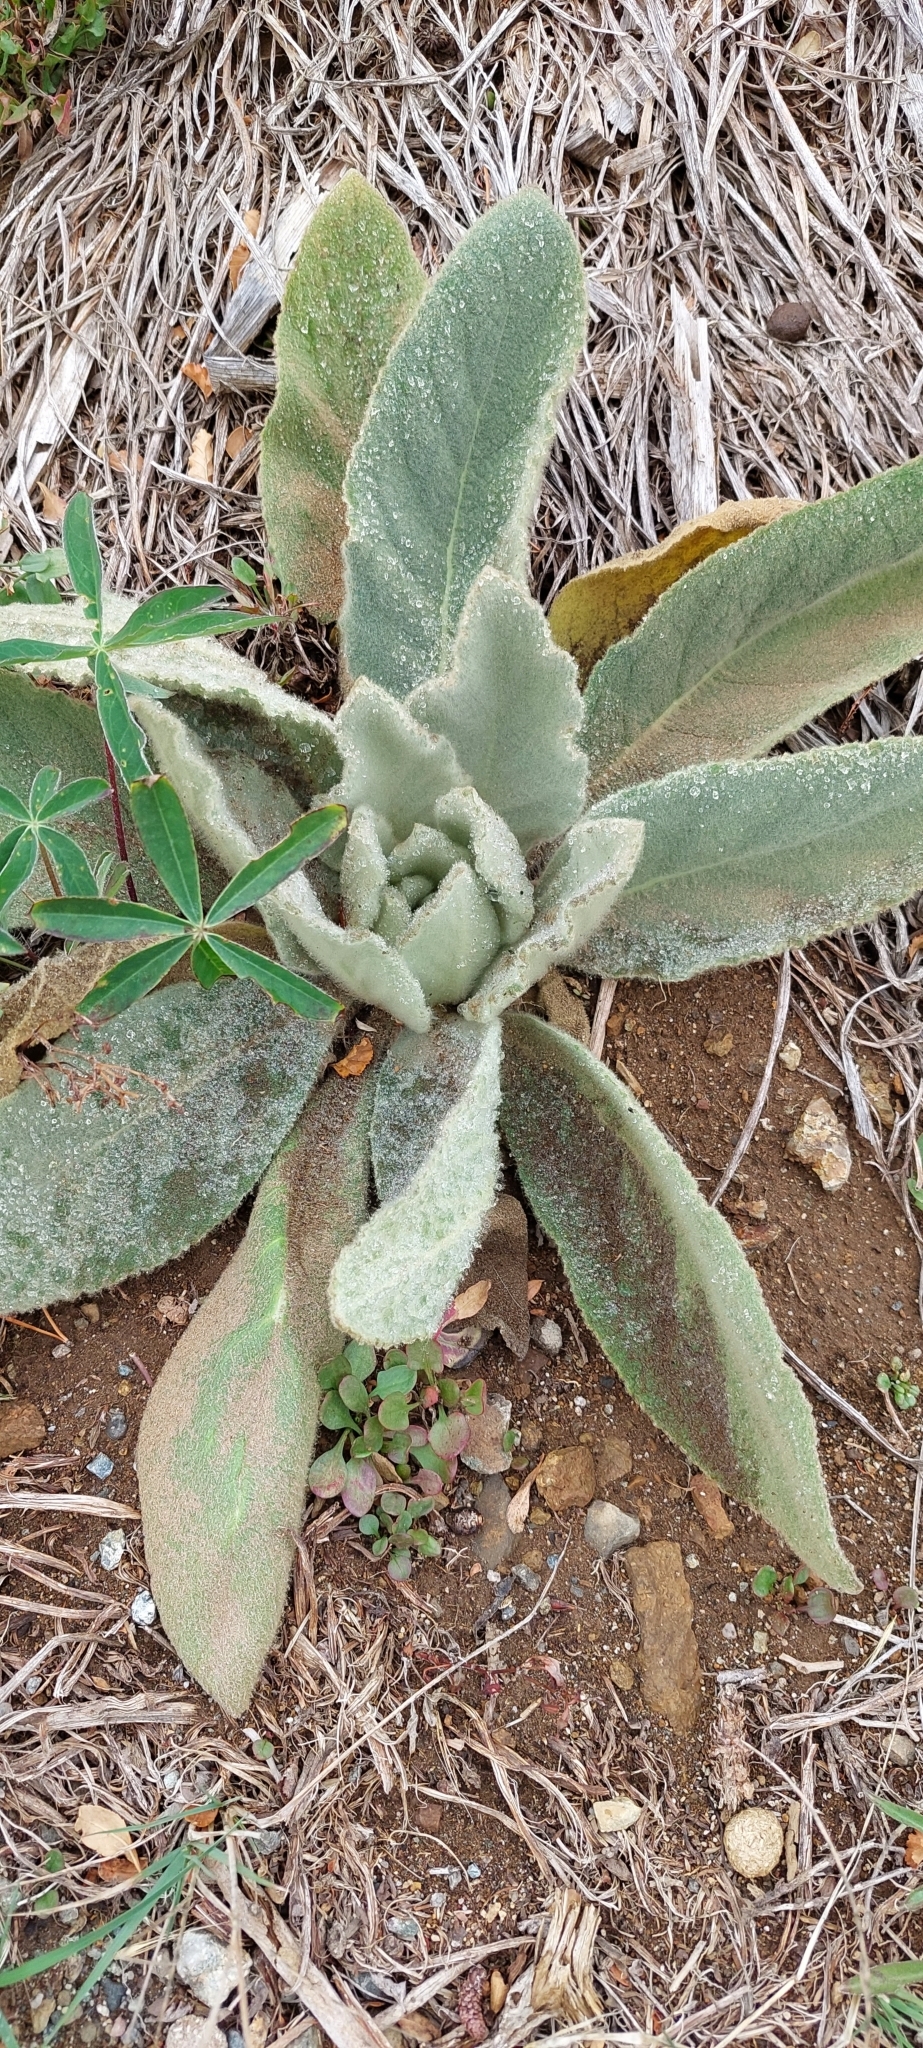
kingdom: Plantae
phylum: Tracheophyta
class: Magnoliopsida
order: Lamiales
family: Scrophulariaceae
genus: Verbascum
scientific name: Verbascum thapsus
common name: Common mullein
